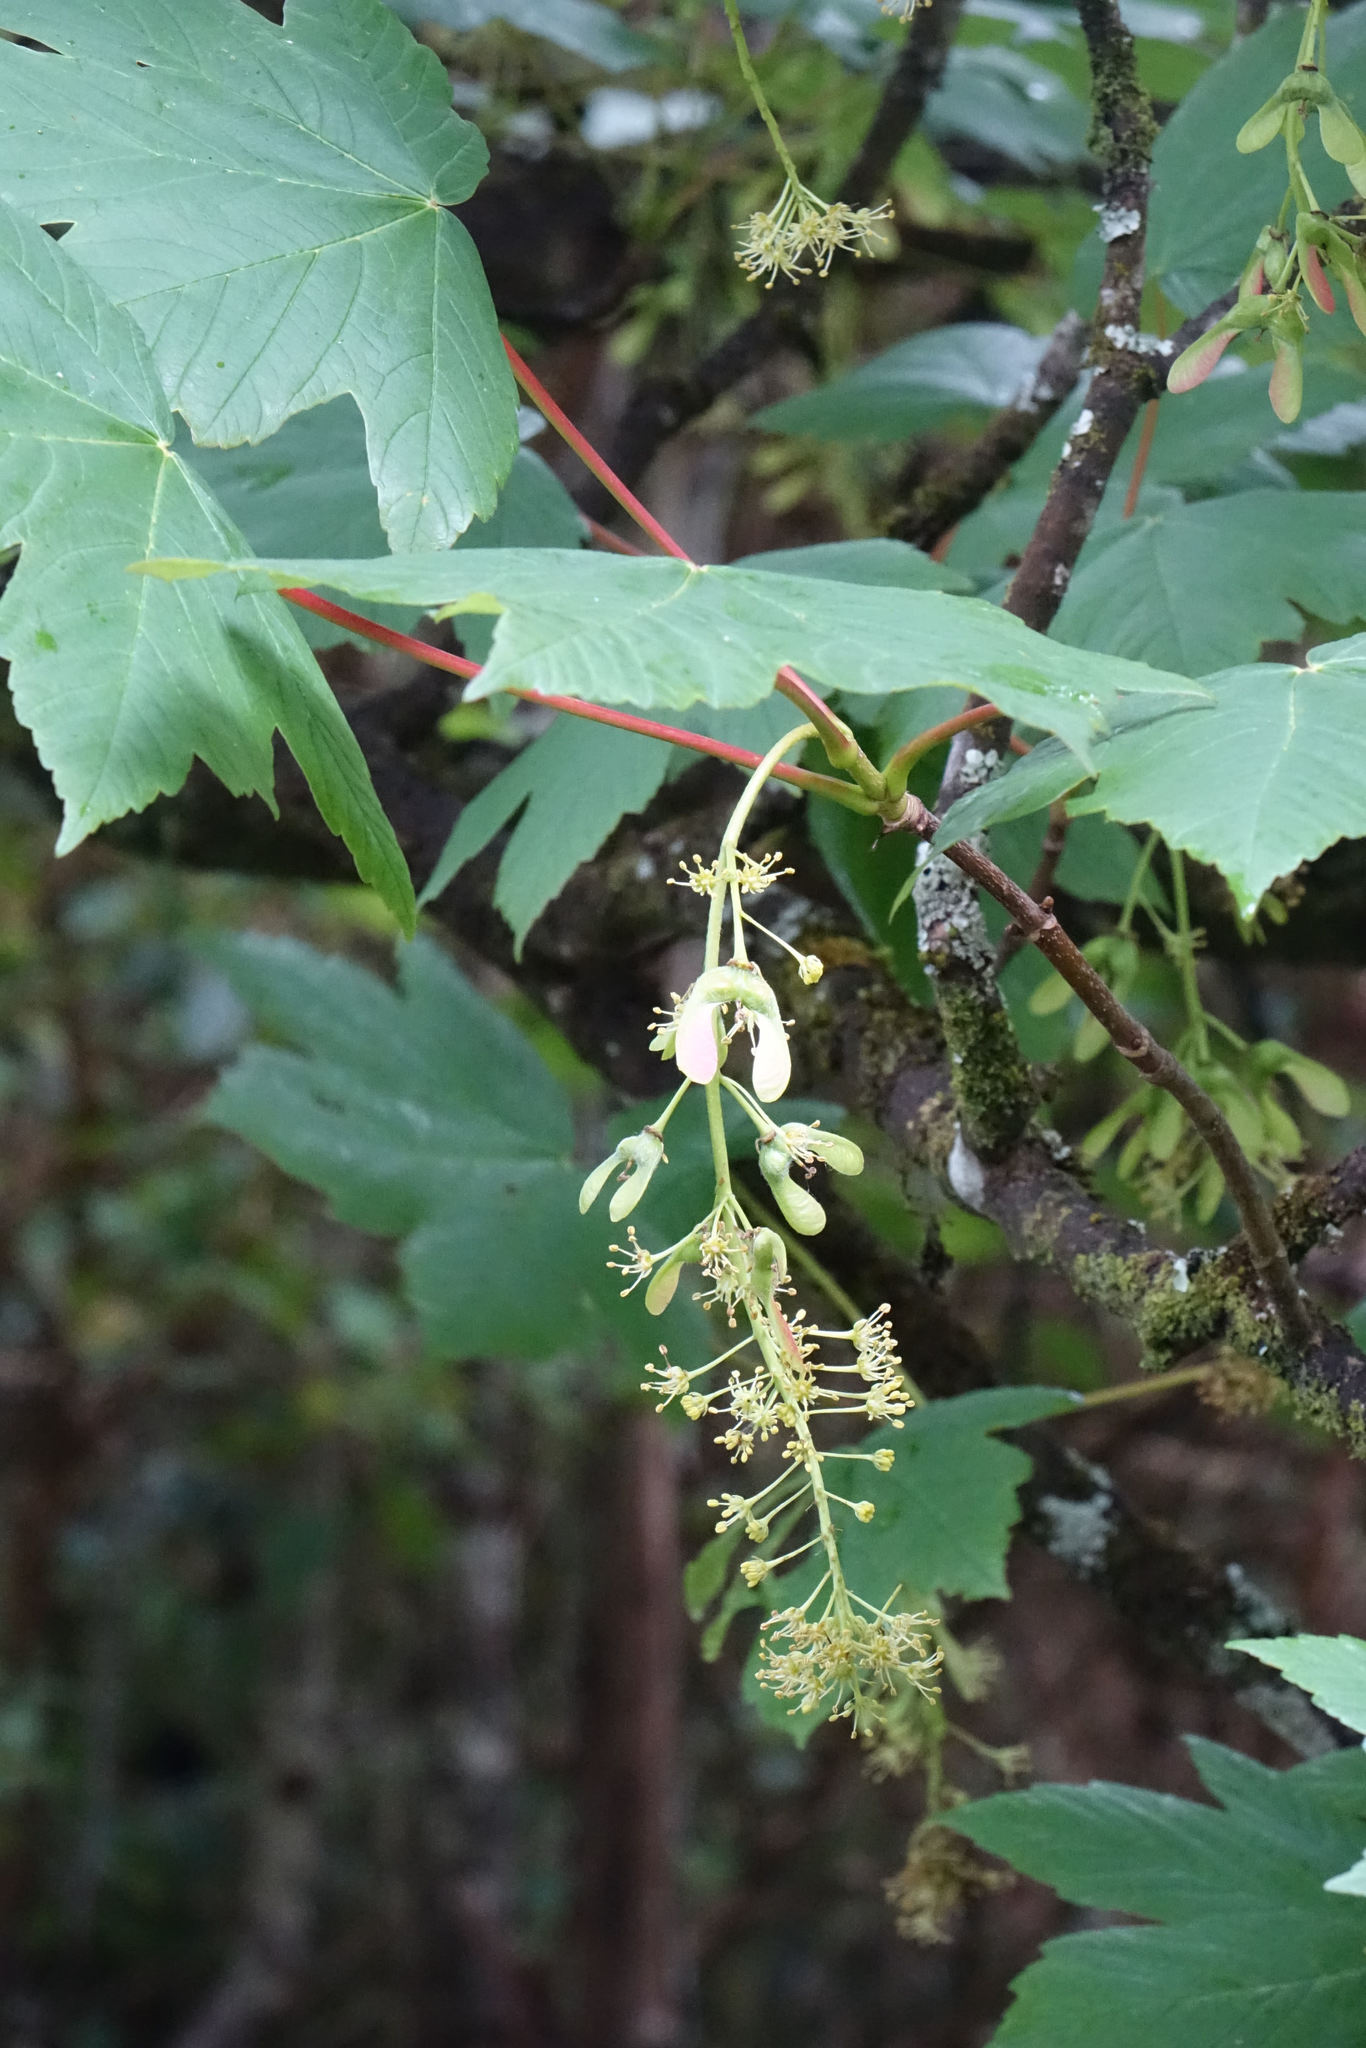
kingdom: Plantae
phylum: Tracheophyta
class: Magnoliopsida
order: Sapindales
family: Sapindaceae
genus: Acer
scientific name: Acer pseudoplatanus
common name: Sycamore
